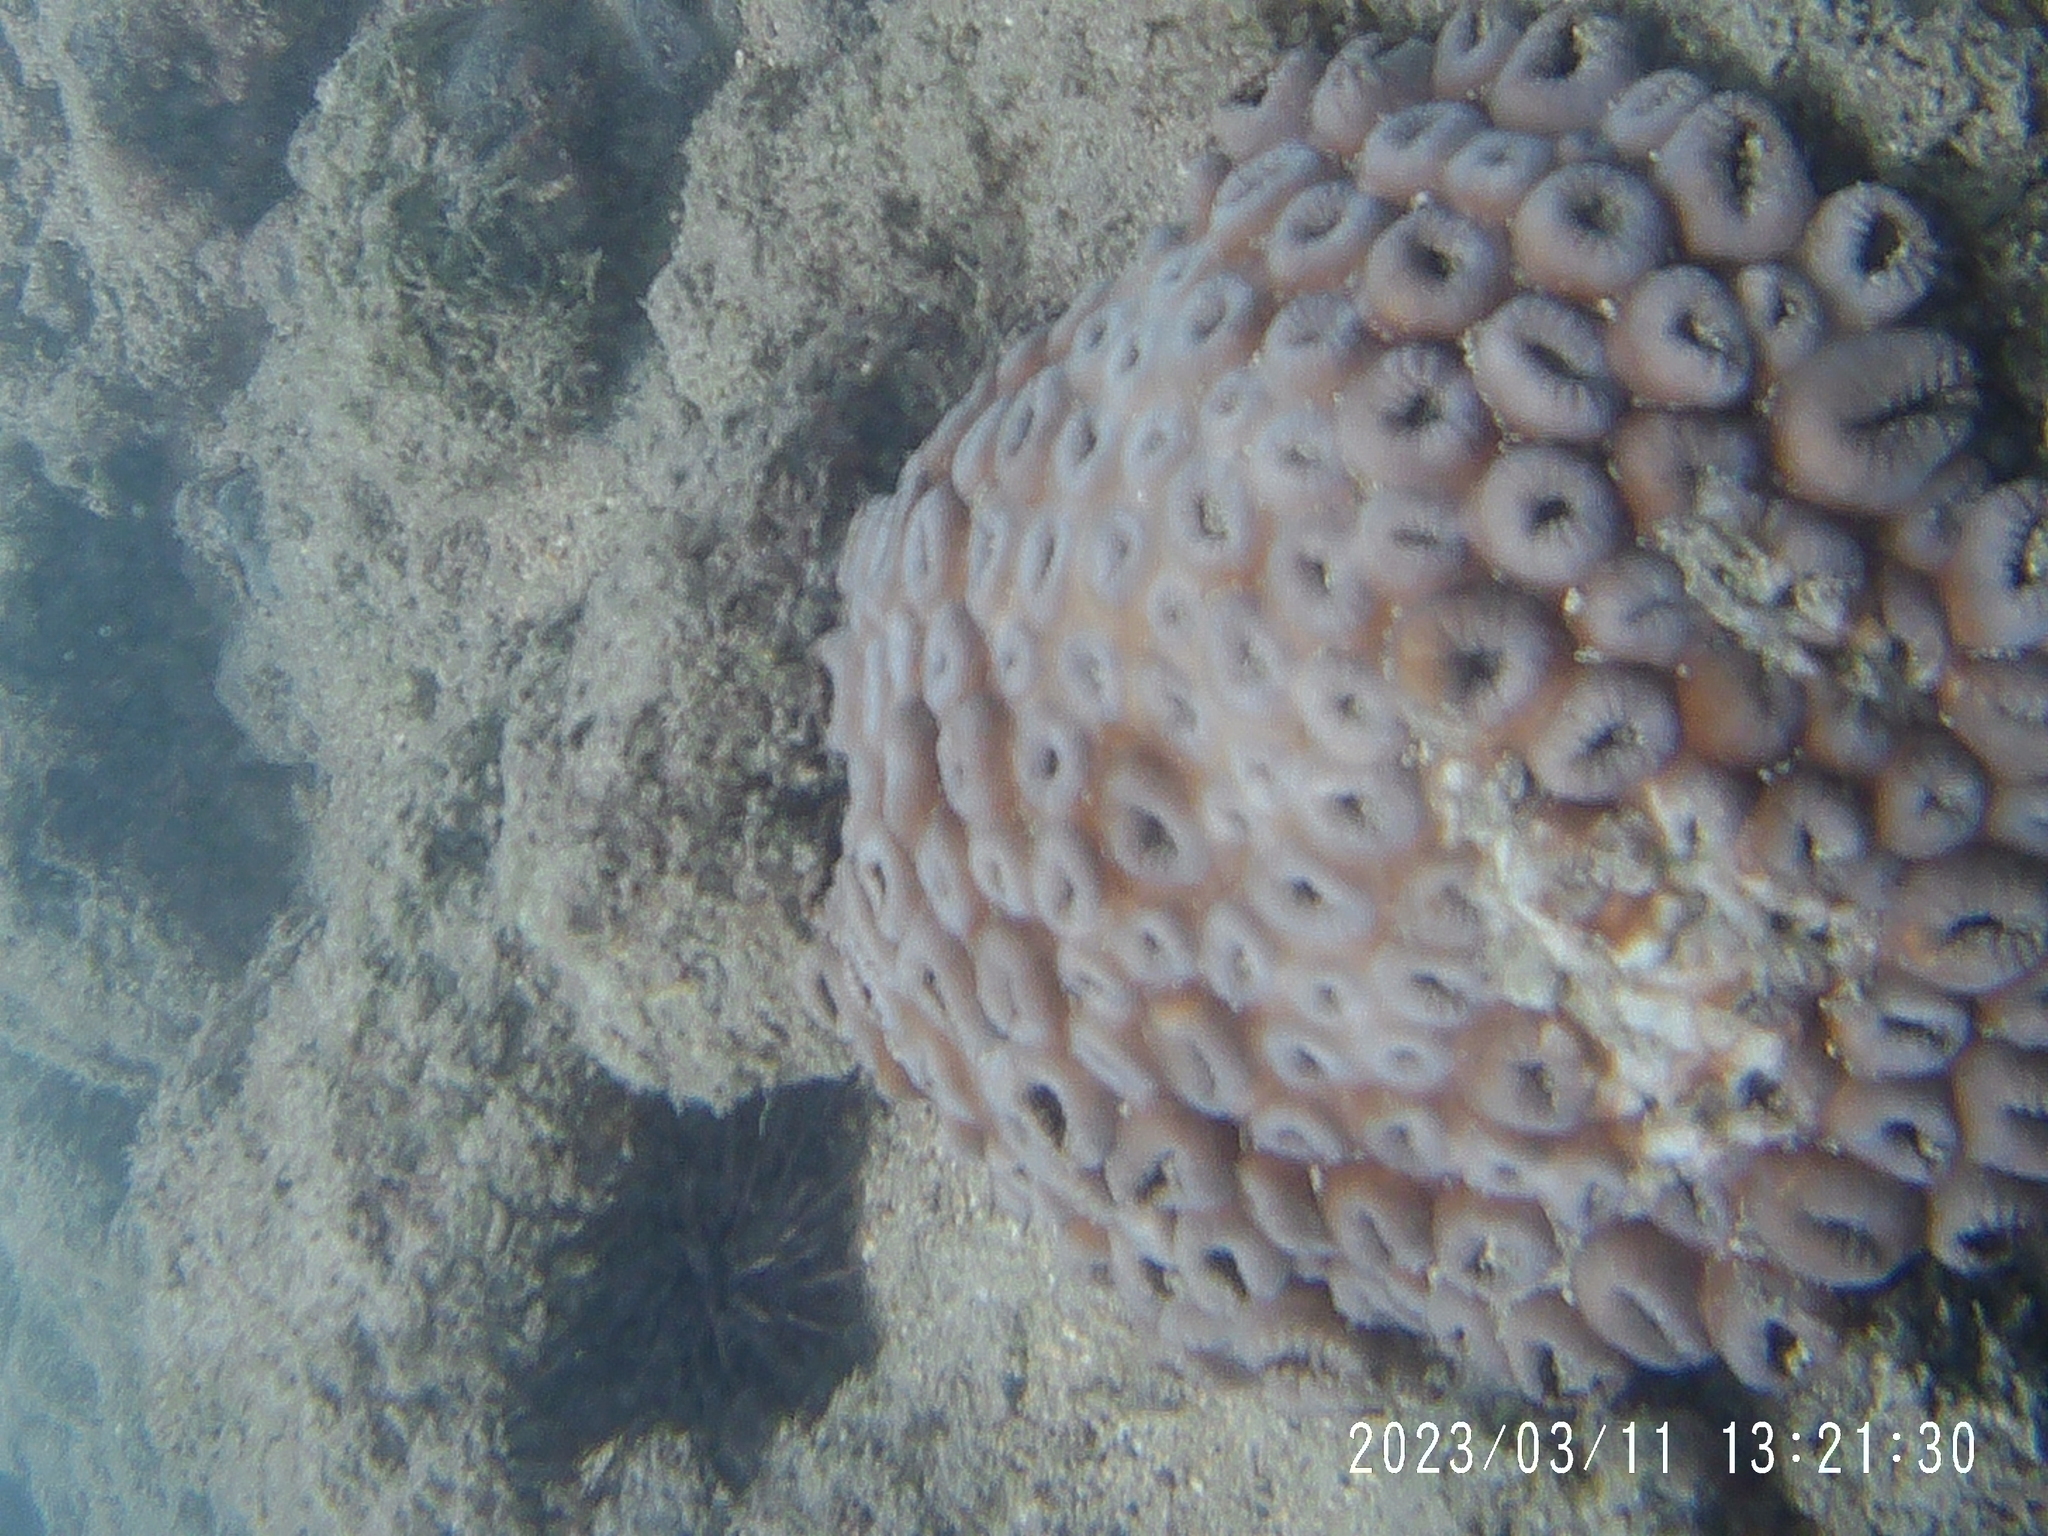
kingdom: Animalia
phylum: Cnidaria
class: Anthozoa
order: Zoantharia
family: Sphenopidae
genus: Palythoa
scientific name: Palythoa tuberculosa
